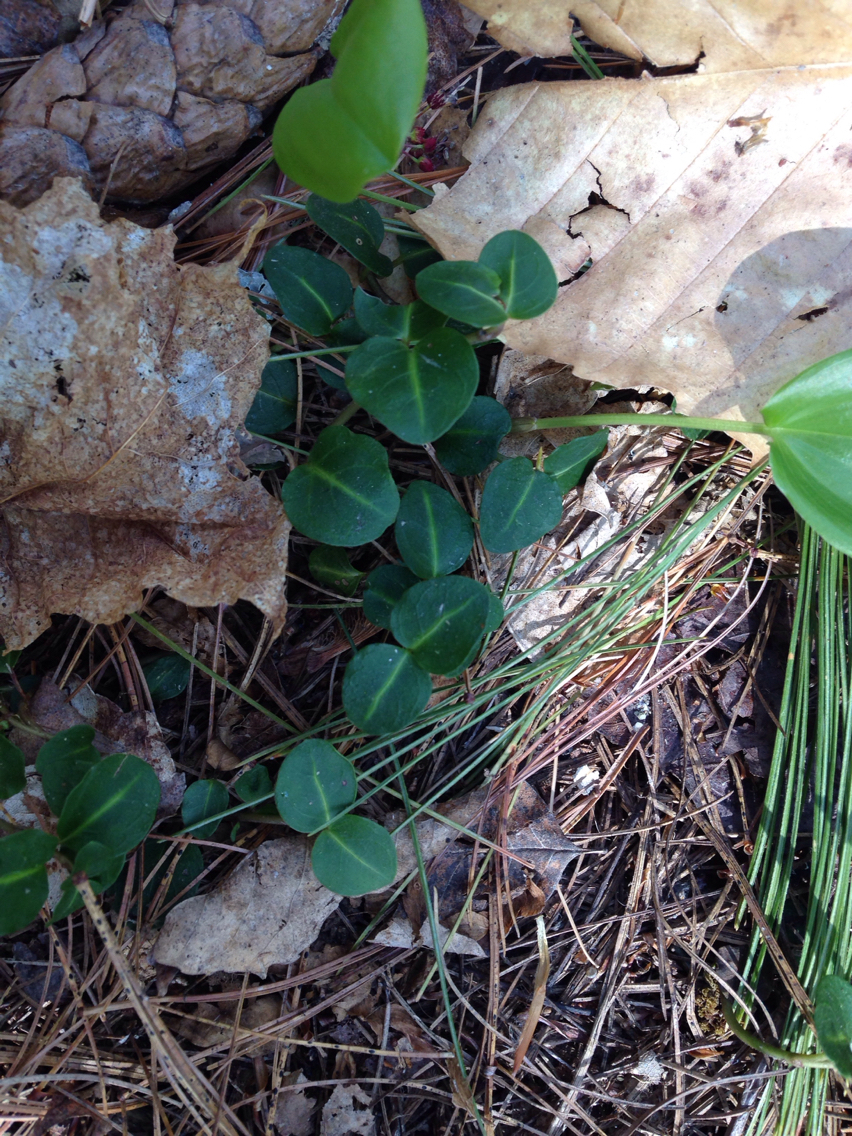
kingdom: Plantae
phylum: Tracheophyta
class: Magnoliopsida
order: Gentianales
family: Rubiaceae
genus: Mitchella
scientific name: Mitchella repens
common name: Partridge-berry
